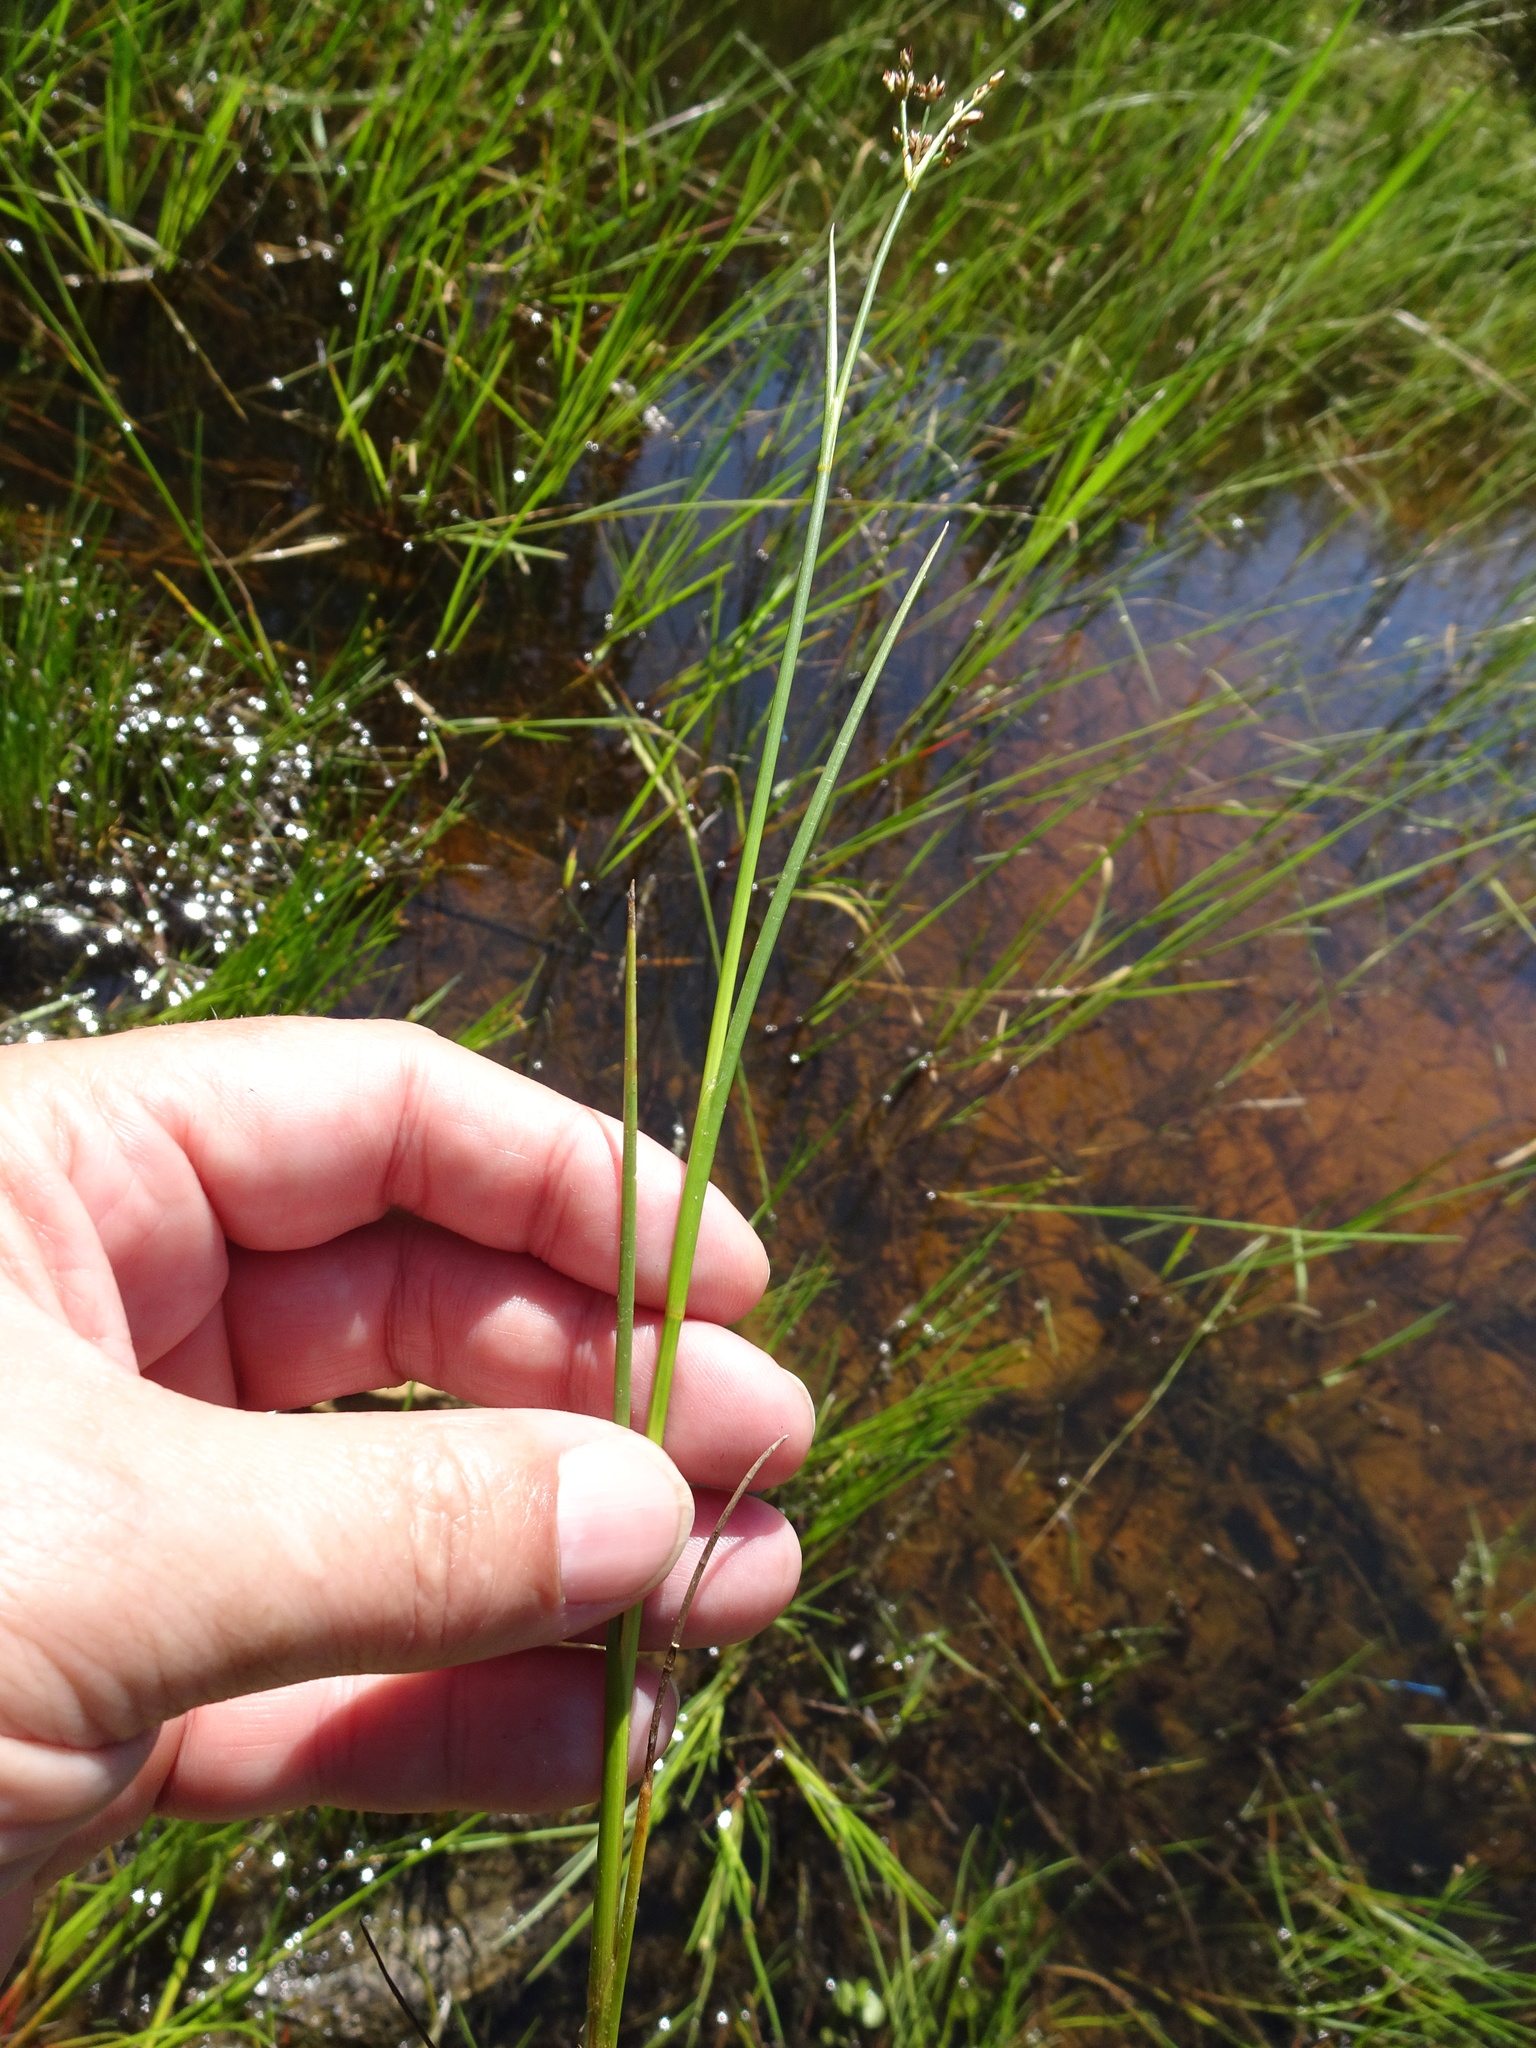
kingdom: Plantae
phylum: Tracheophyta
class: Liliopsida
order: Poales
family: Juncaceae
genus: Juncus
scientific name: Juncus articulatus
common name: Jointed rush
